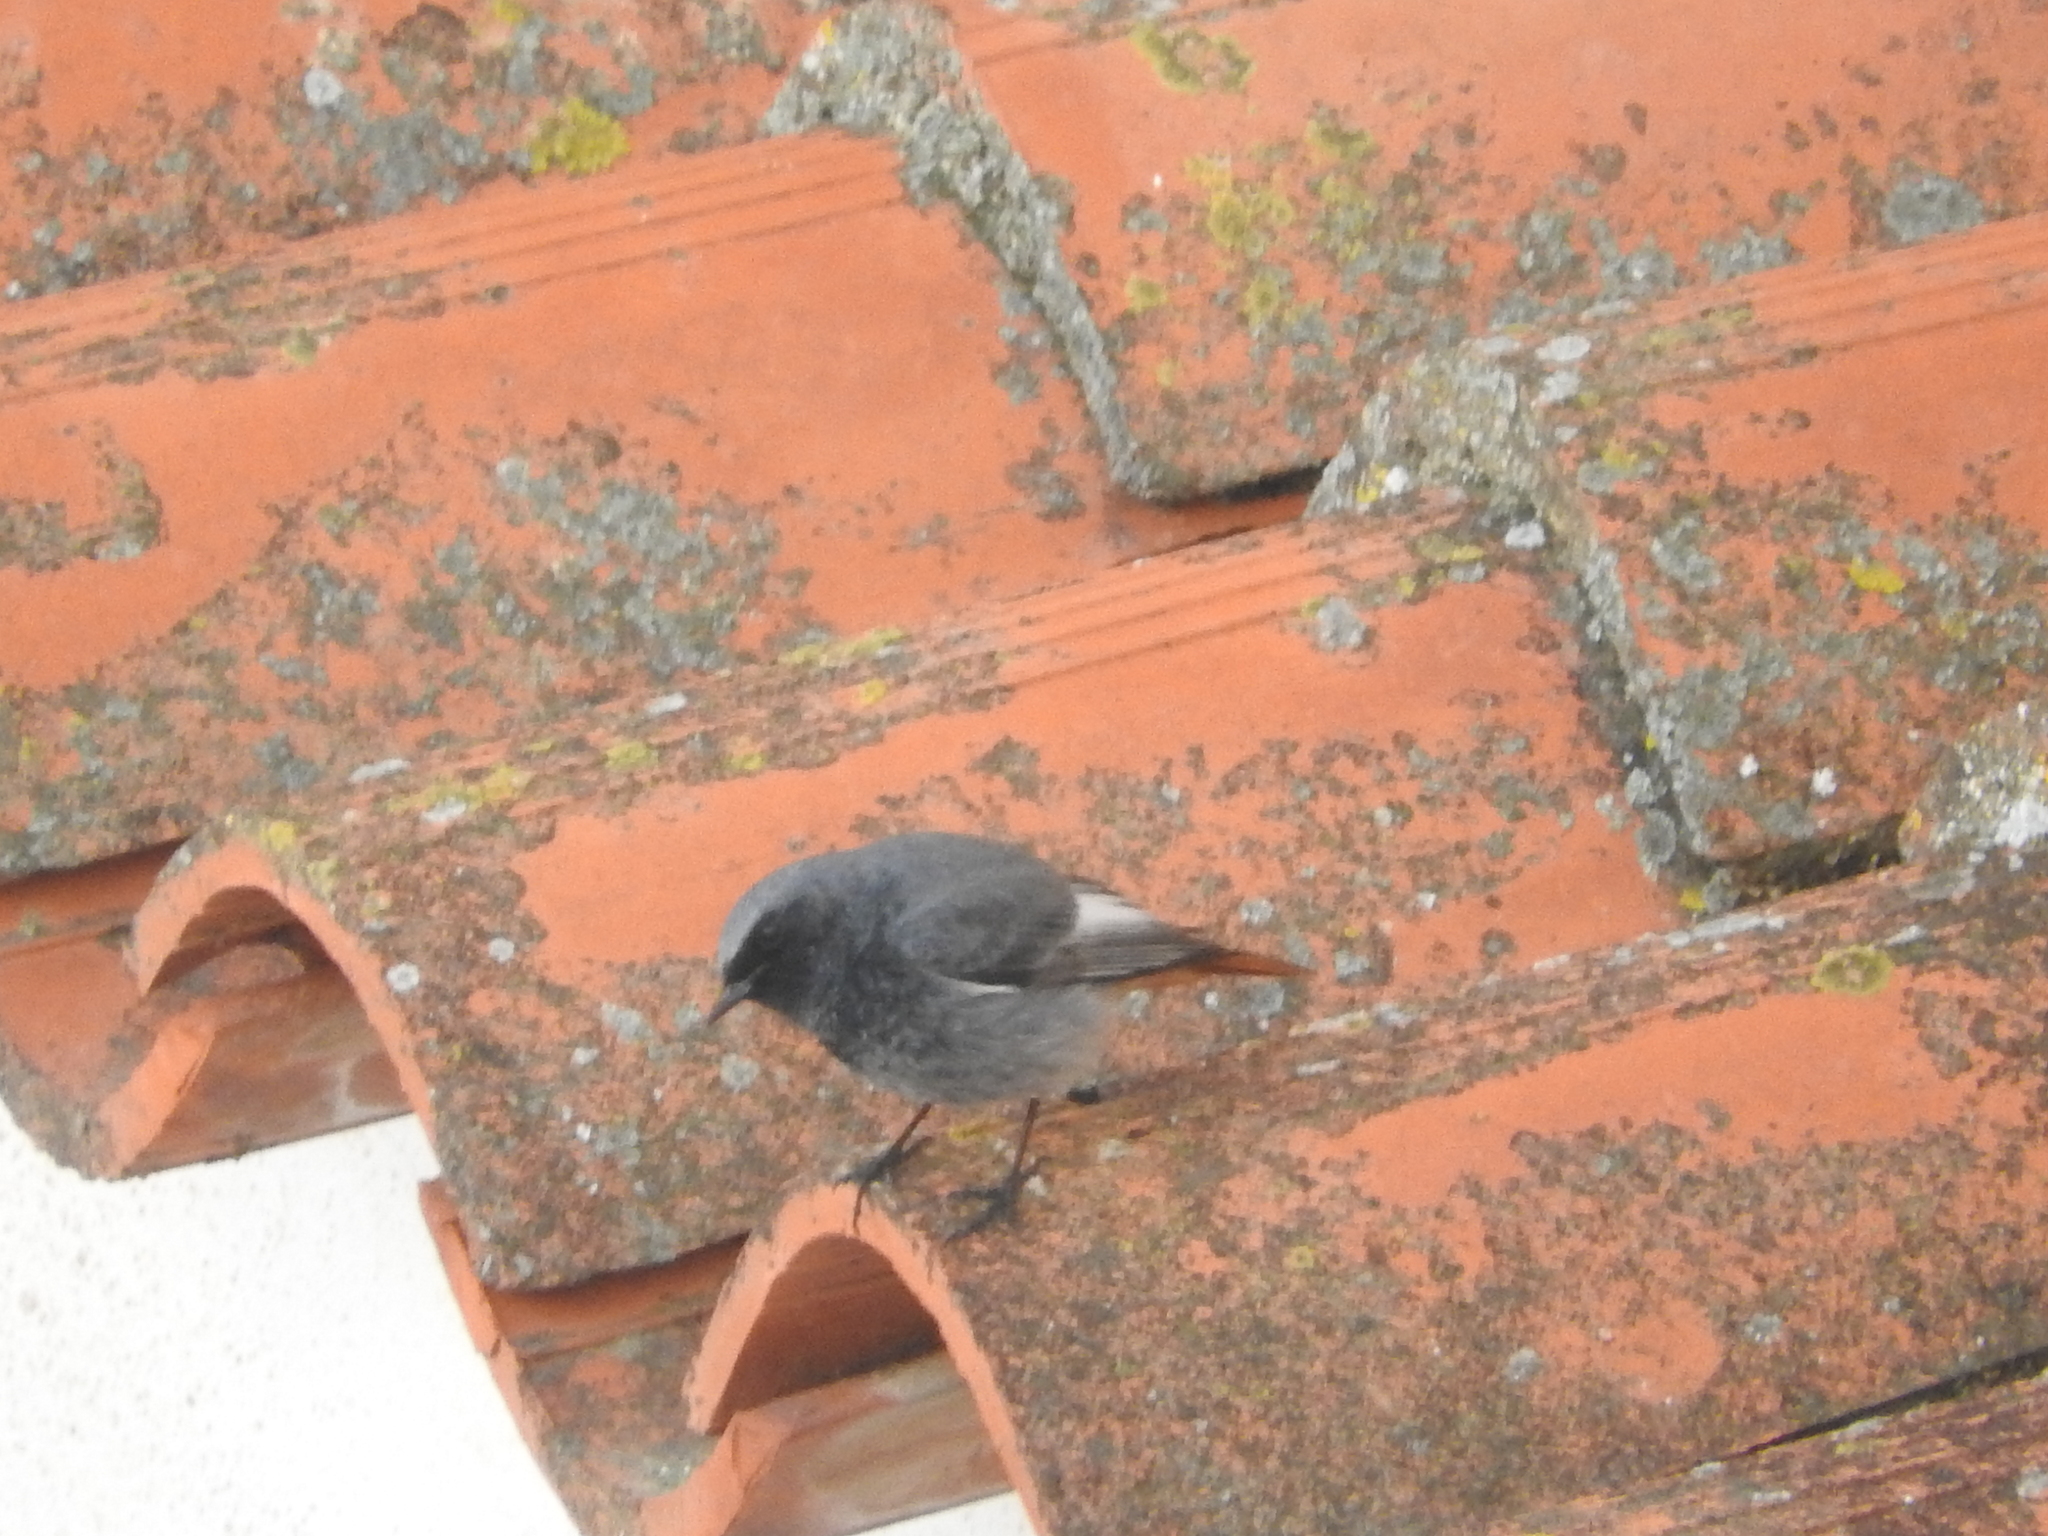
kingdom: Animalia
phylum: Chordata
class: Aves
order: Passeriformes
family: Muscicapidae
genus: Phoenicurus
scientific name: Phoenicurus ochruros
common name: Black redstart
